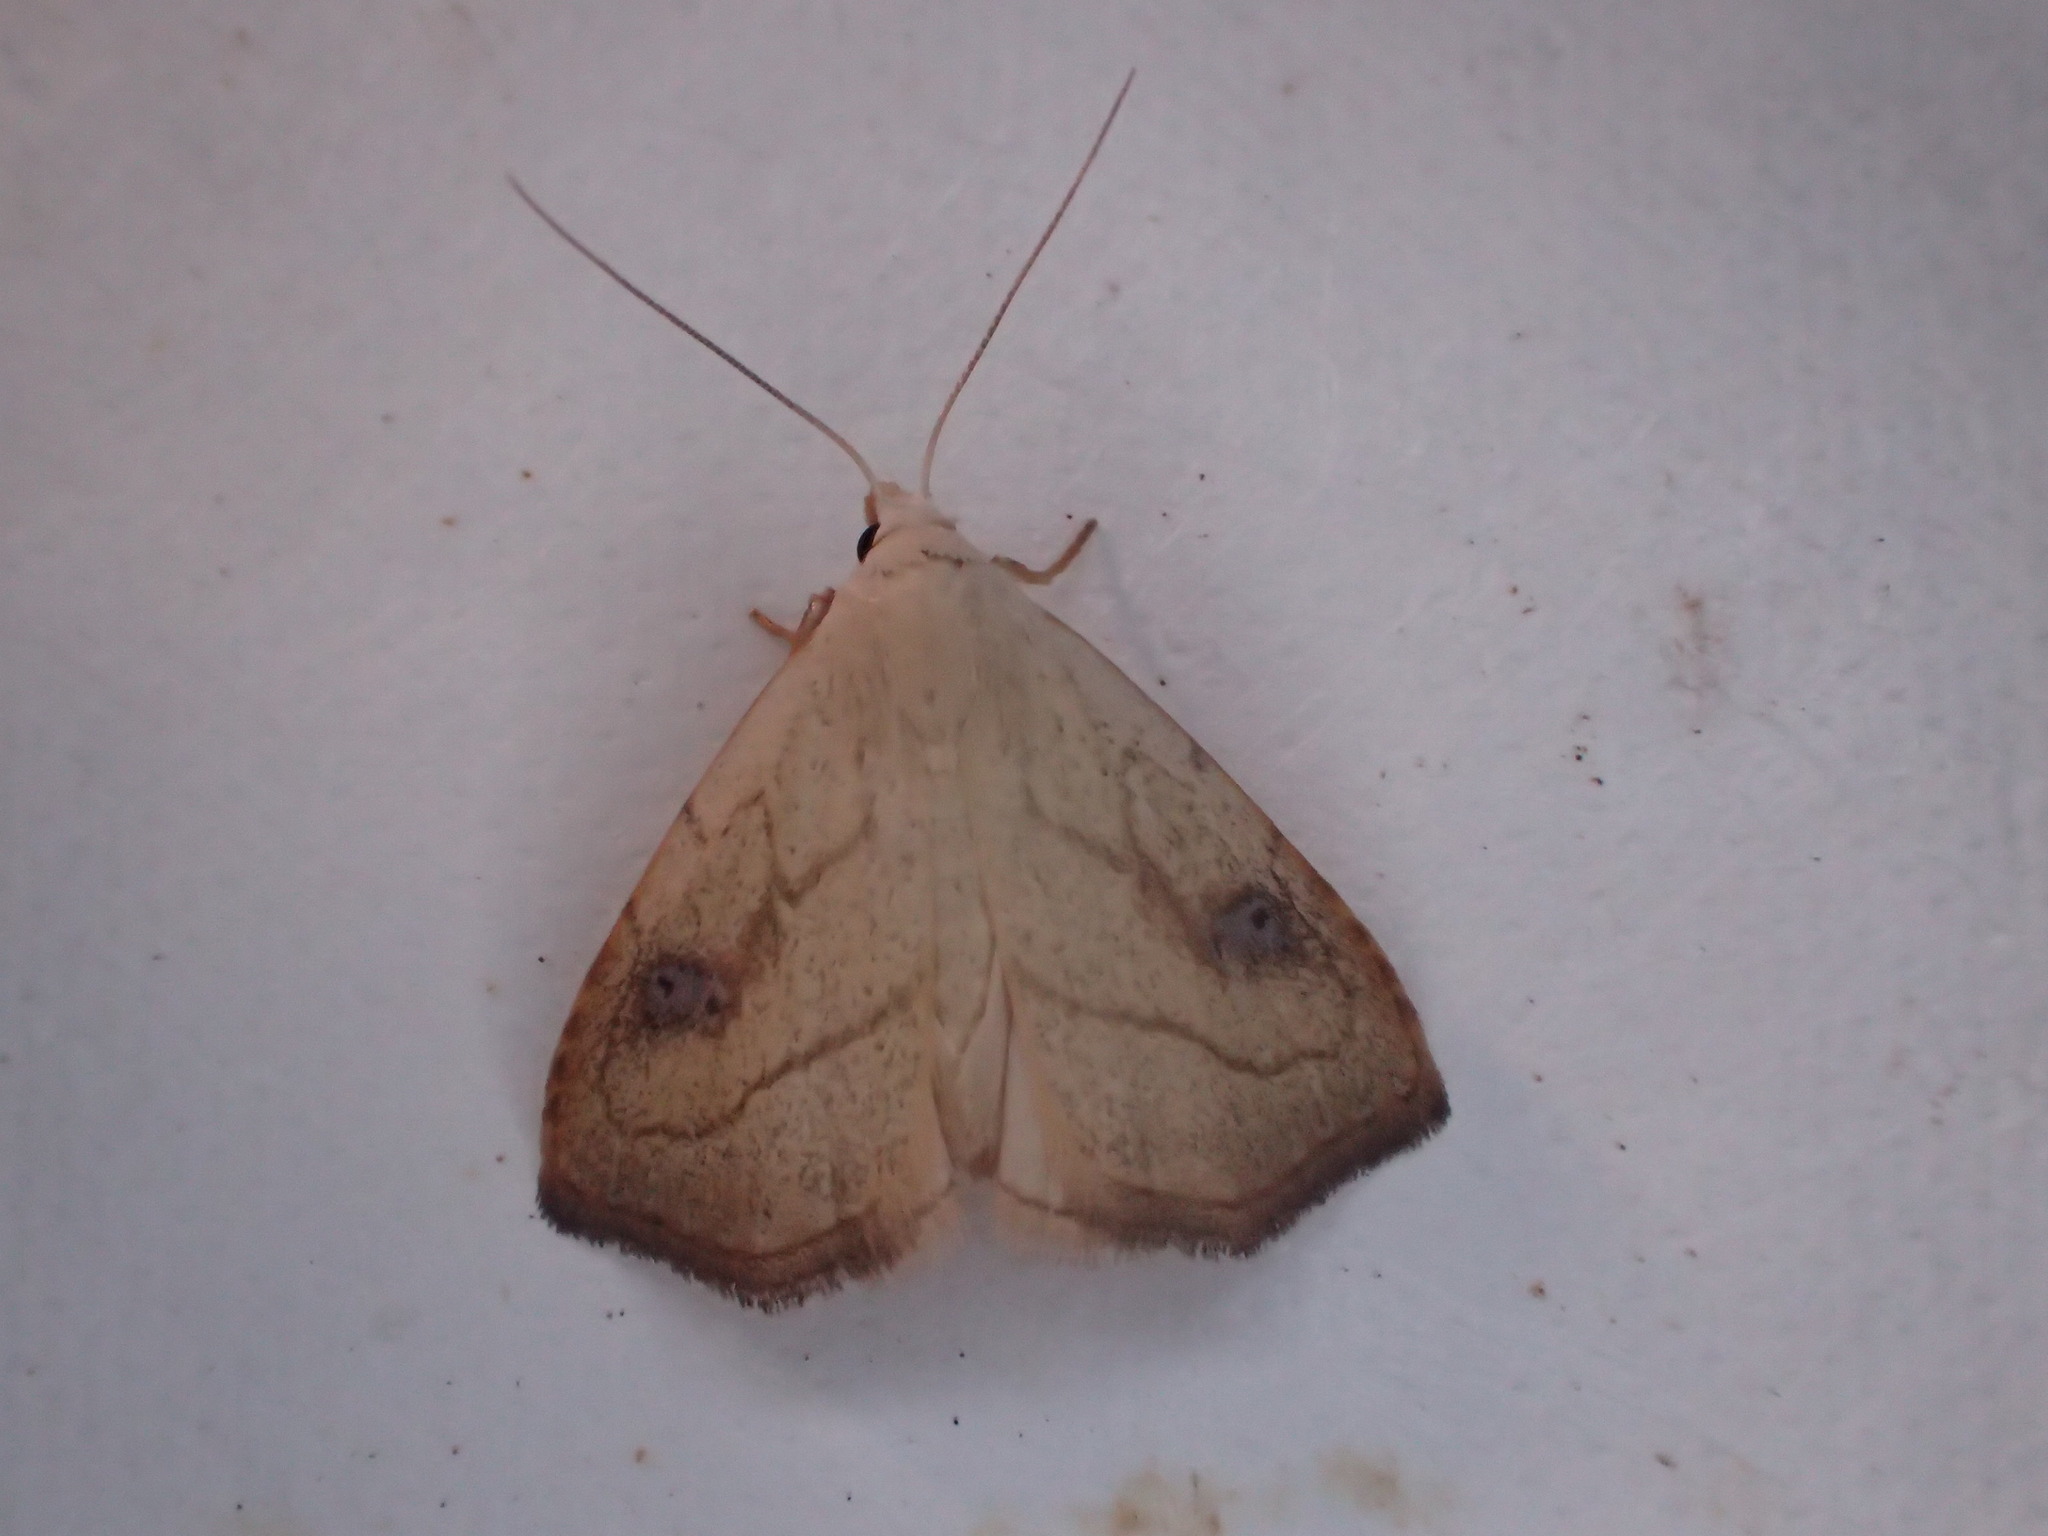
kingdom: Animalia
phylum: Arthropoda
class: Insecta
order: Lepidoptera
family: Erebidae
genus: Rivula
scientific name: Rivula propinqualis
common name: Spotted grass moth
